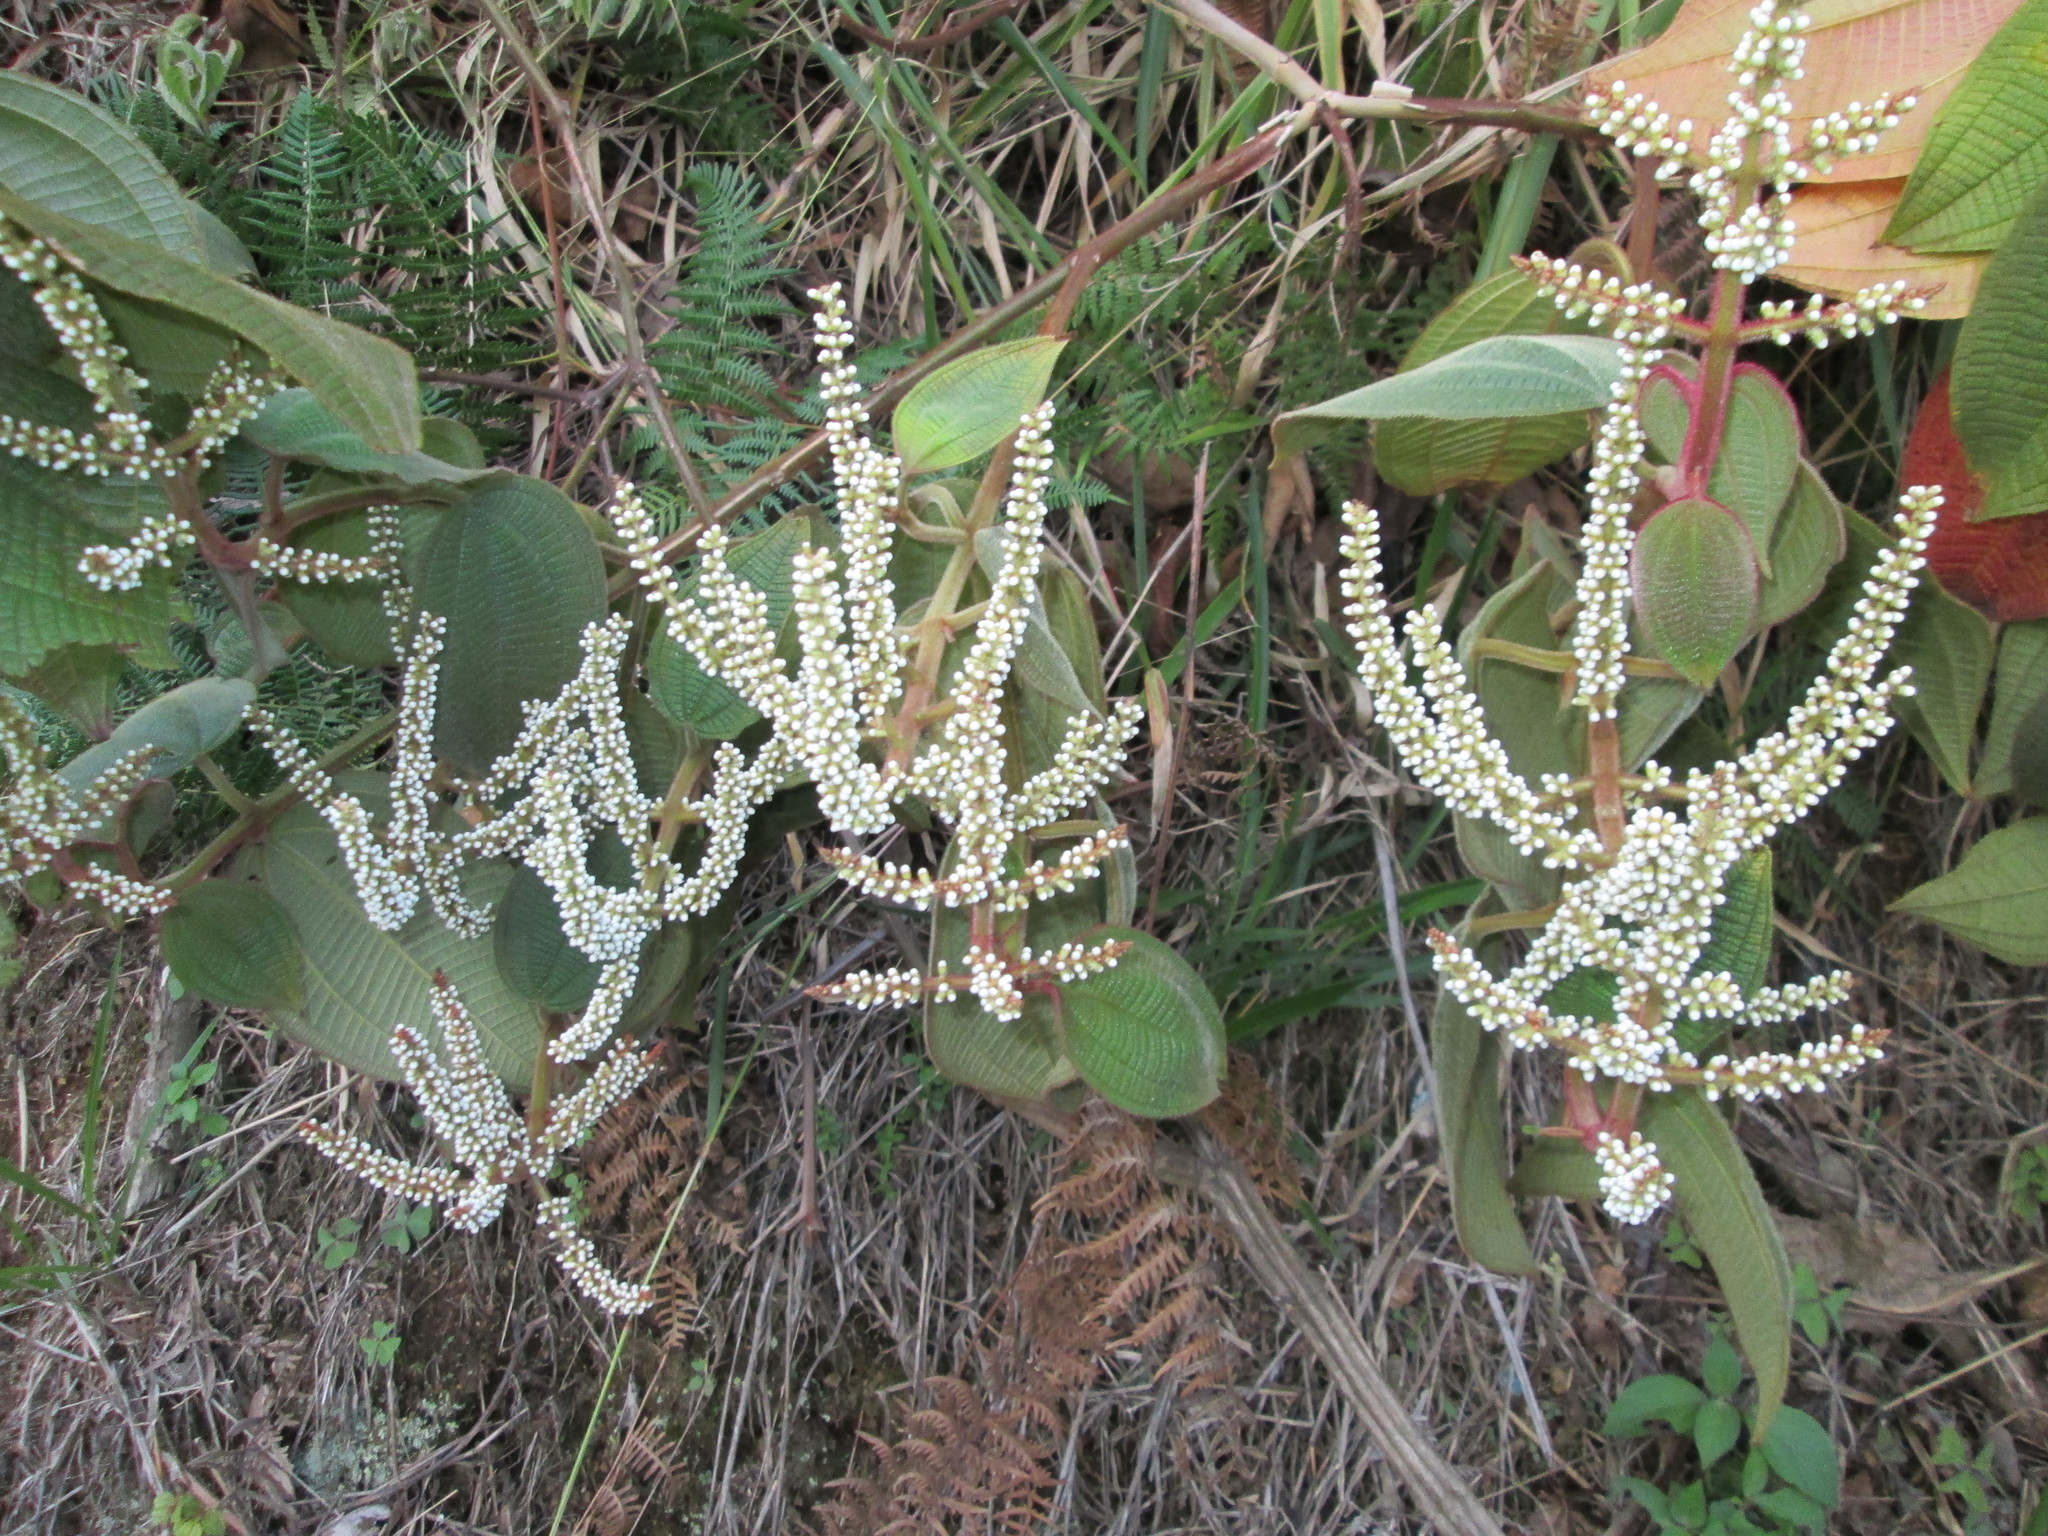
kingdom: Plantae
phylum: Tracheophyta
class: Magnoliopsida
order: Myrtales
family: Melastomataceae
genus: Miconia
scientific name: Miconia aeruginosa
